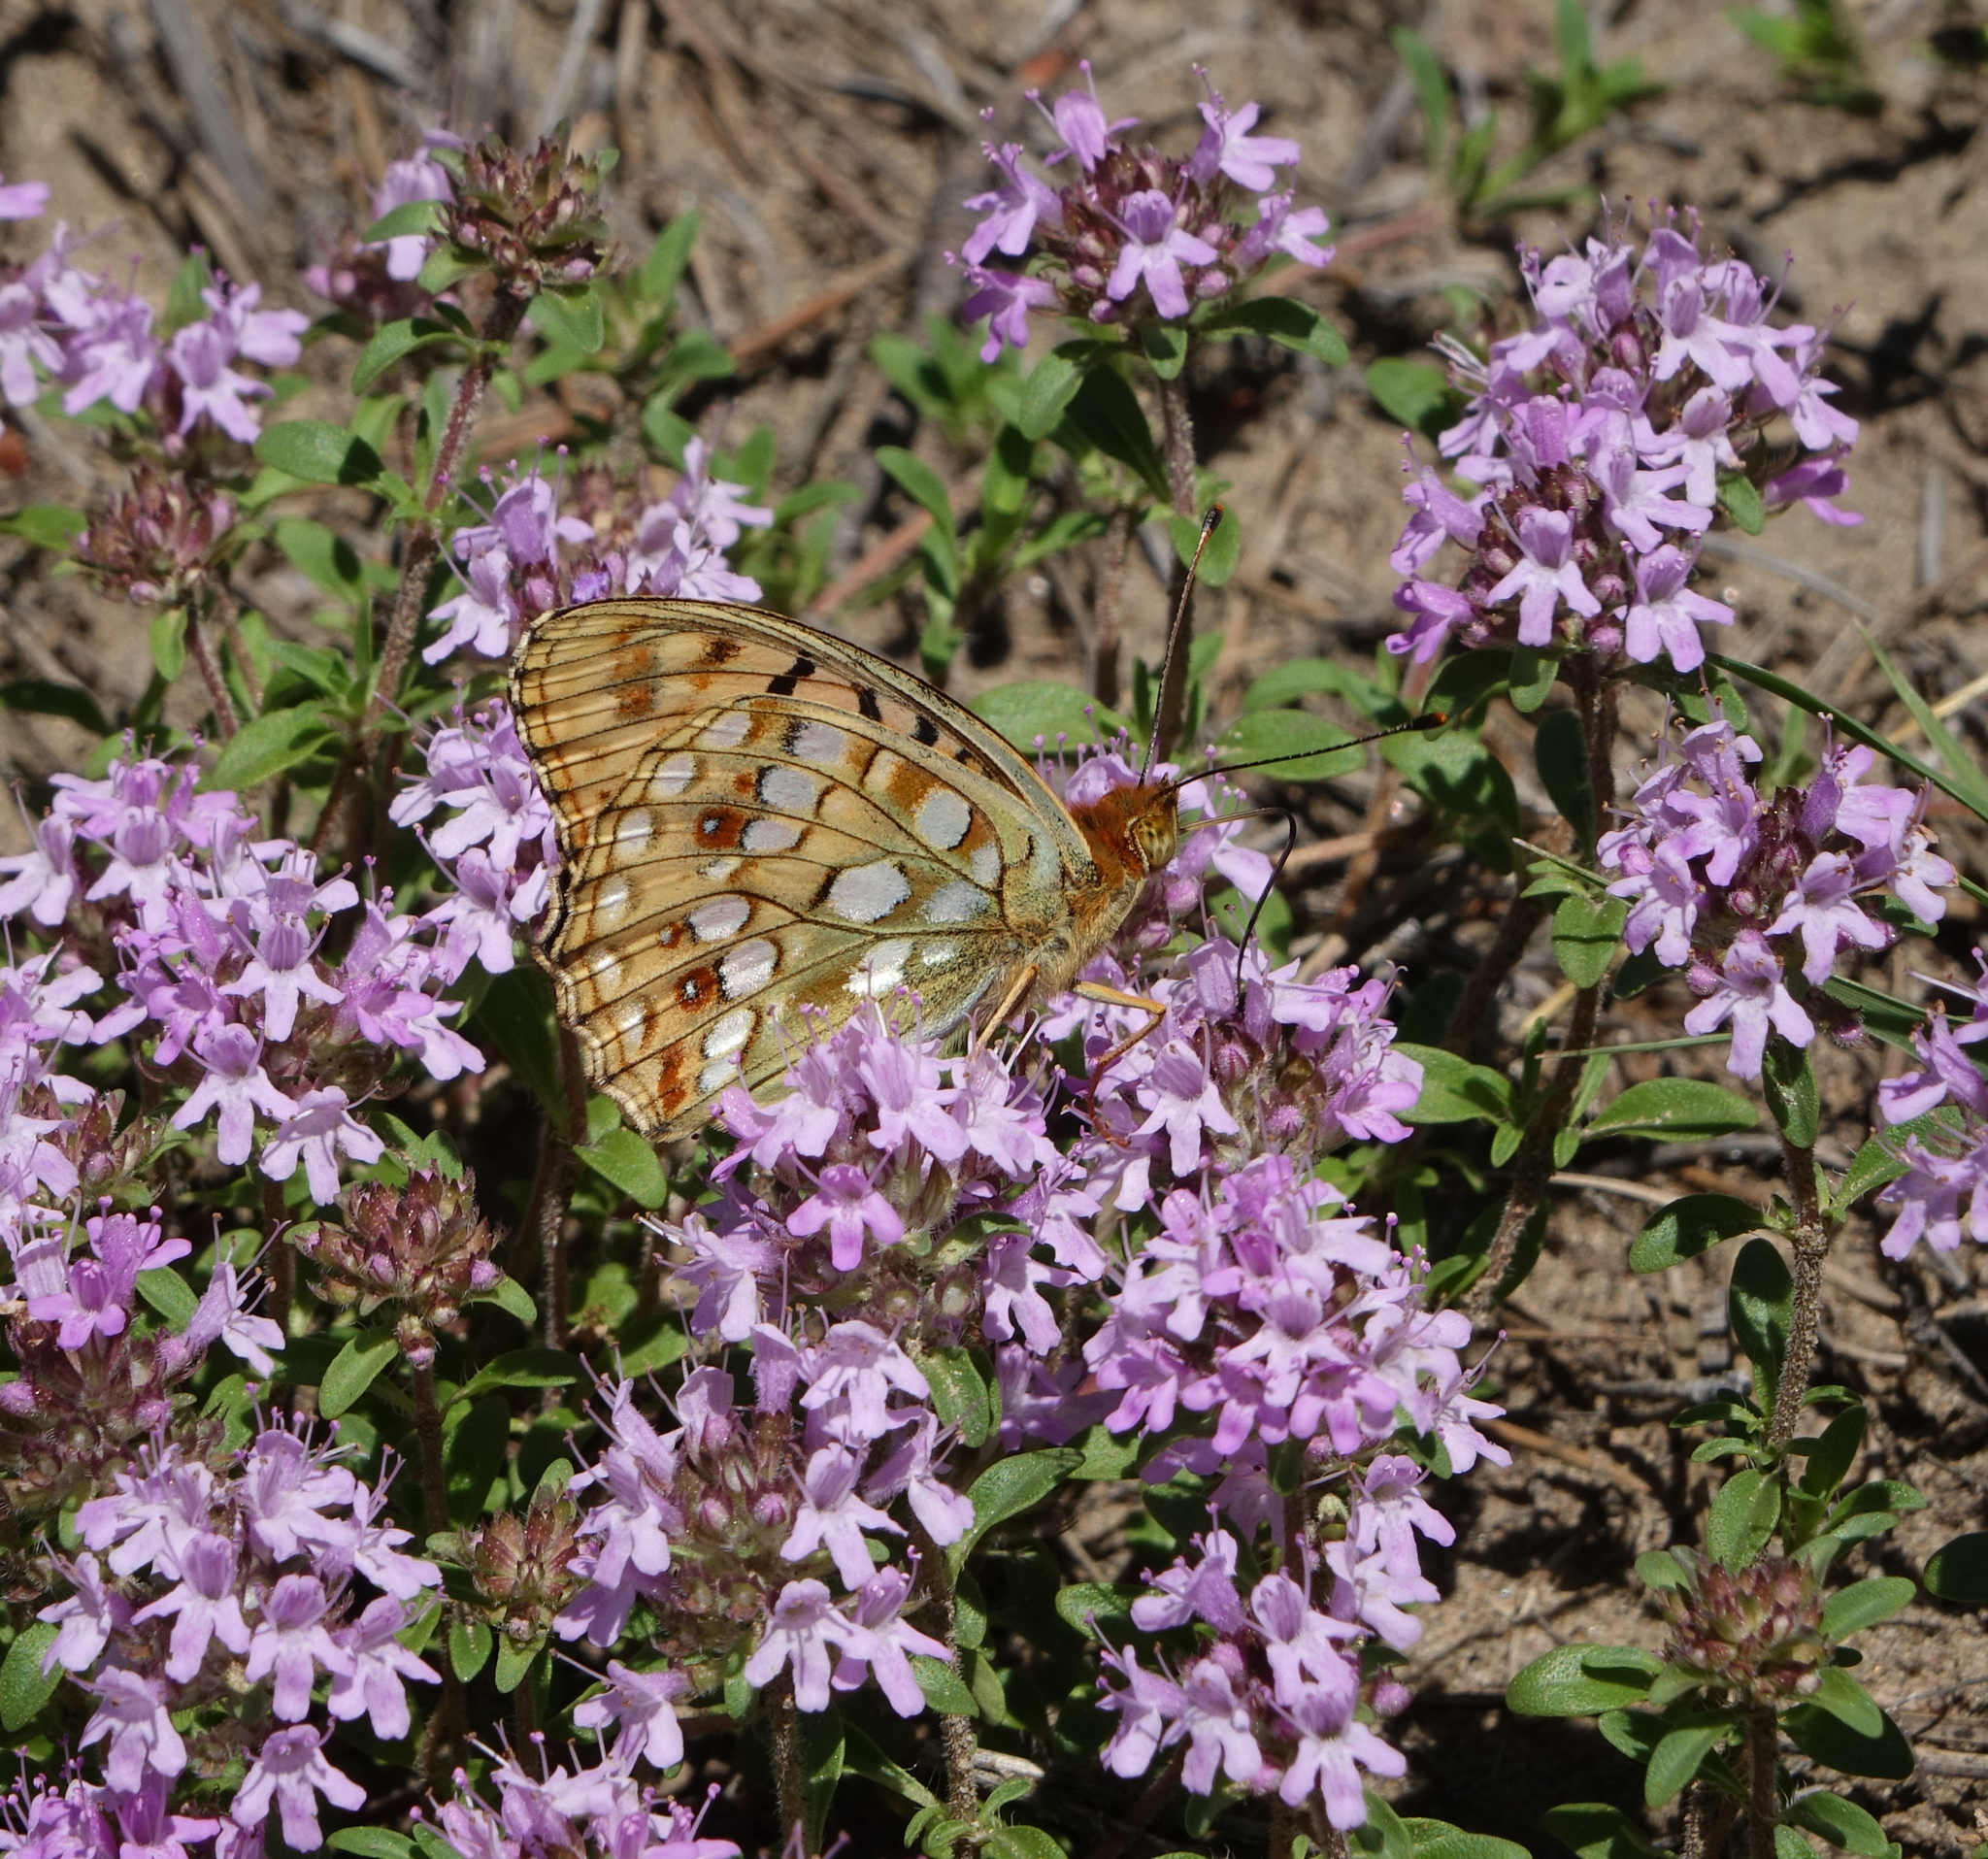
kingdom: Animalia
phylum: Arthropoda
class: Insecta
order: Lepidoptera
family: Nymphalidae
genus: Fabriciana
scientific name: Fabriciana adippe
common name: High brown fritillary
